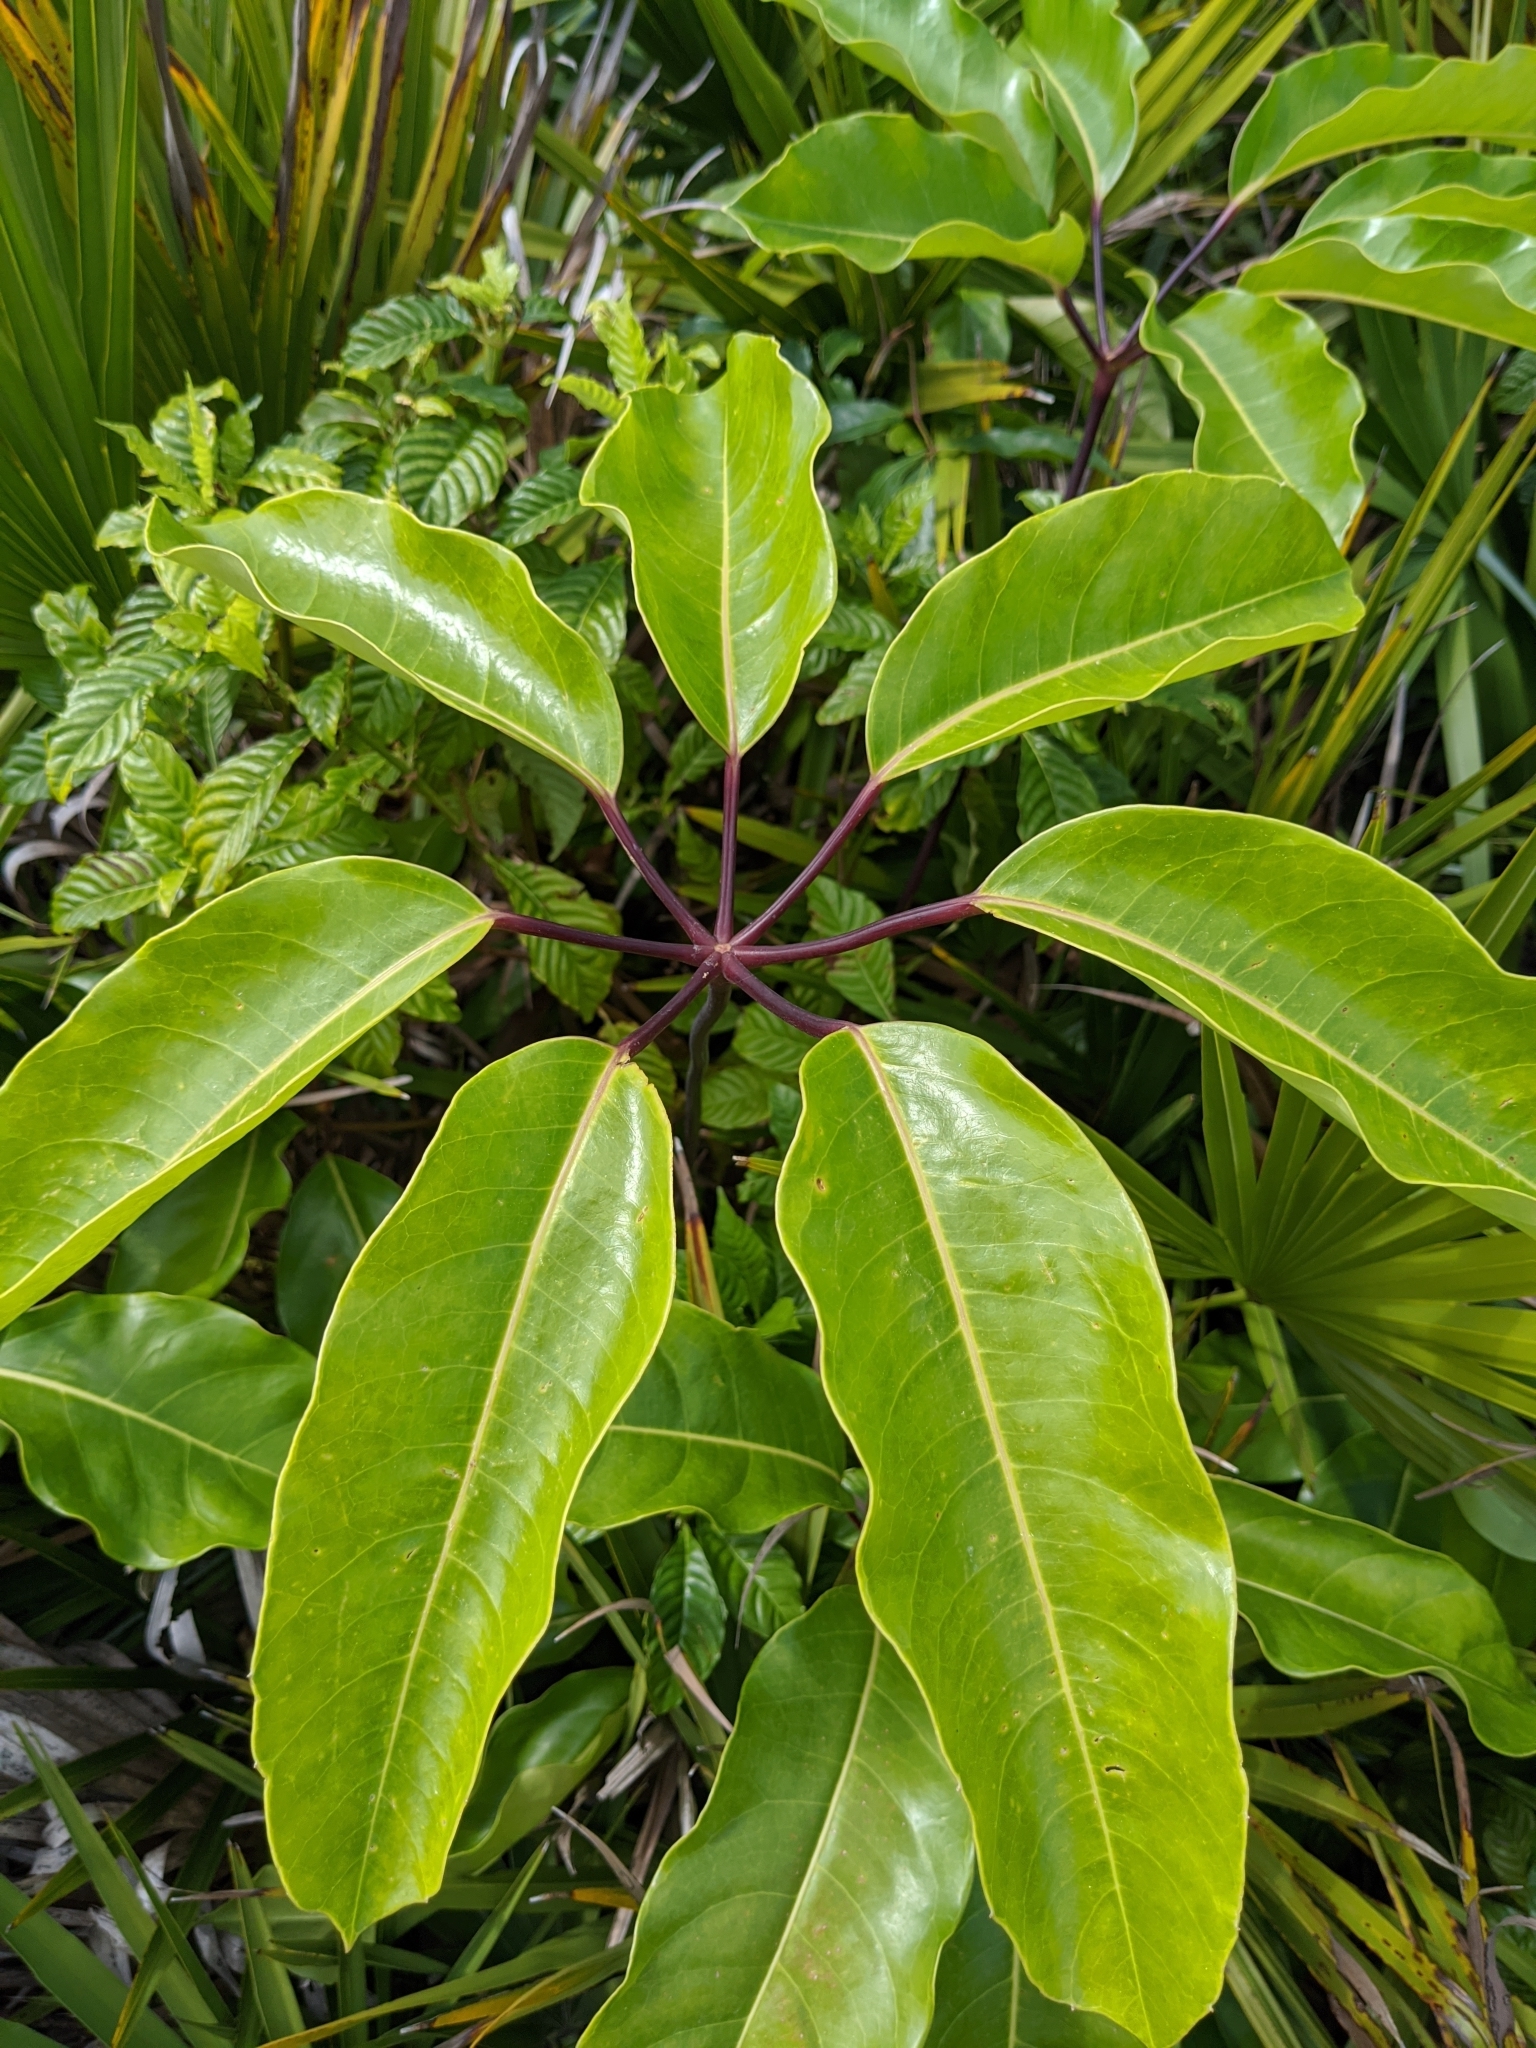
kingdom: Plantae
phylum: Tracheophyta
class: Magnoliopsida
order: Apiales
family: Araliaceae
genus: Heptapleurum
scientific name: Heptapleurum actinophyllum
